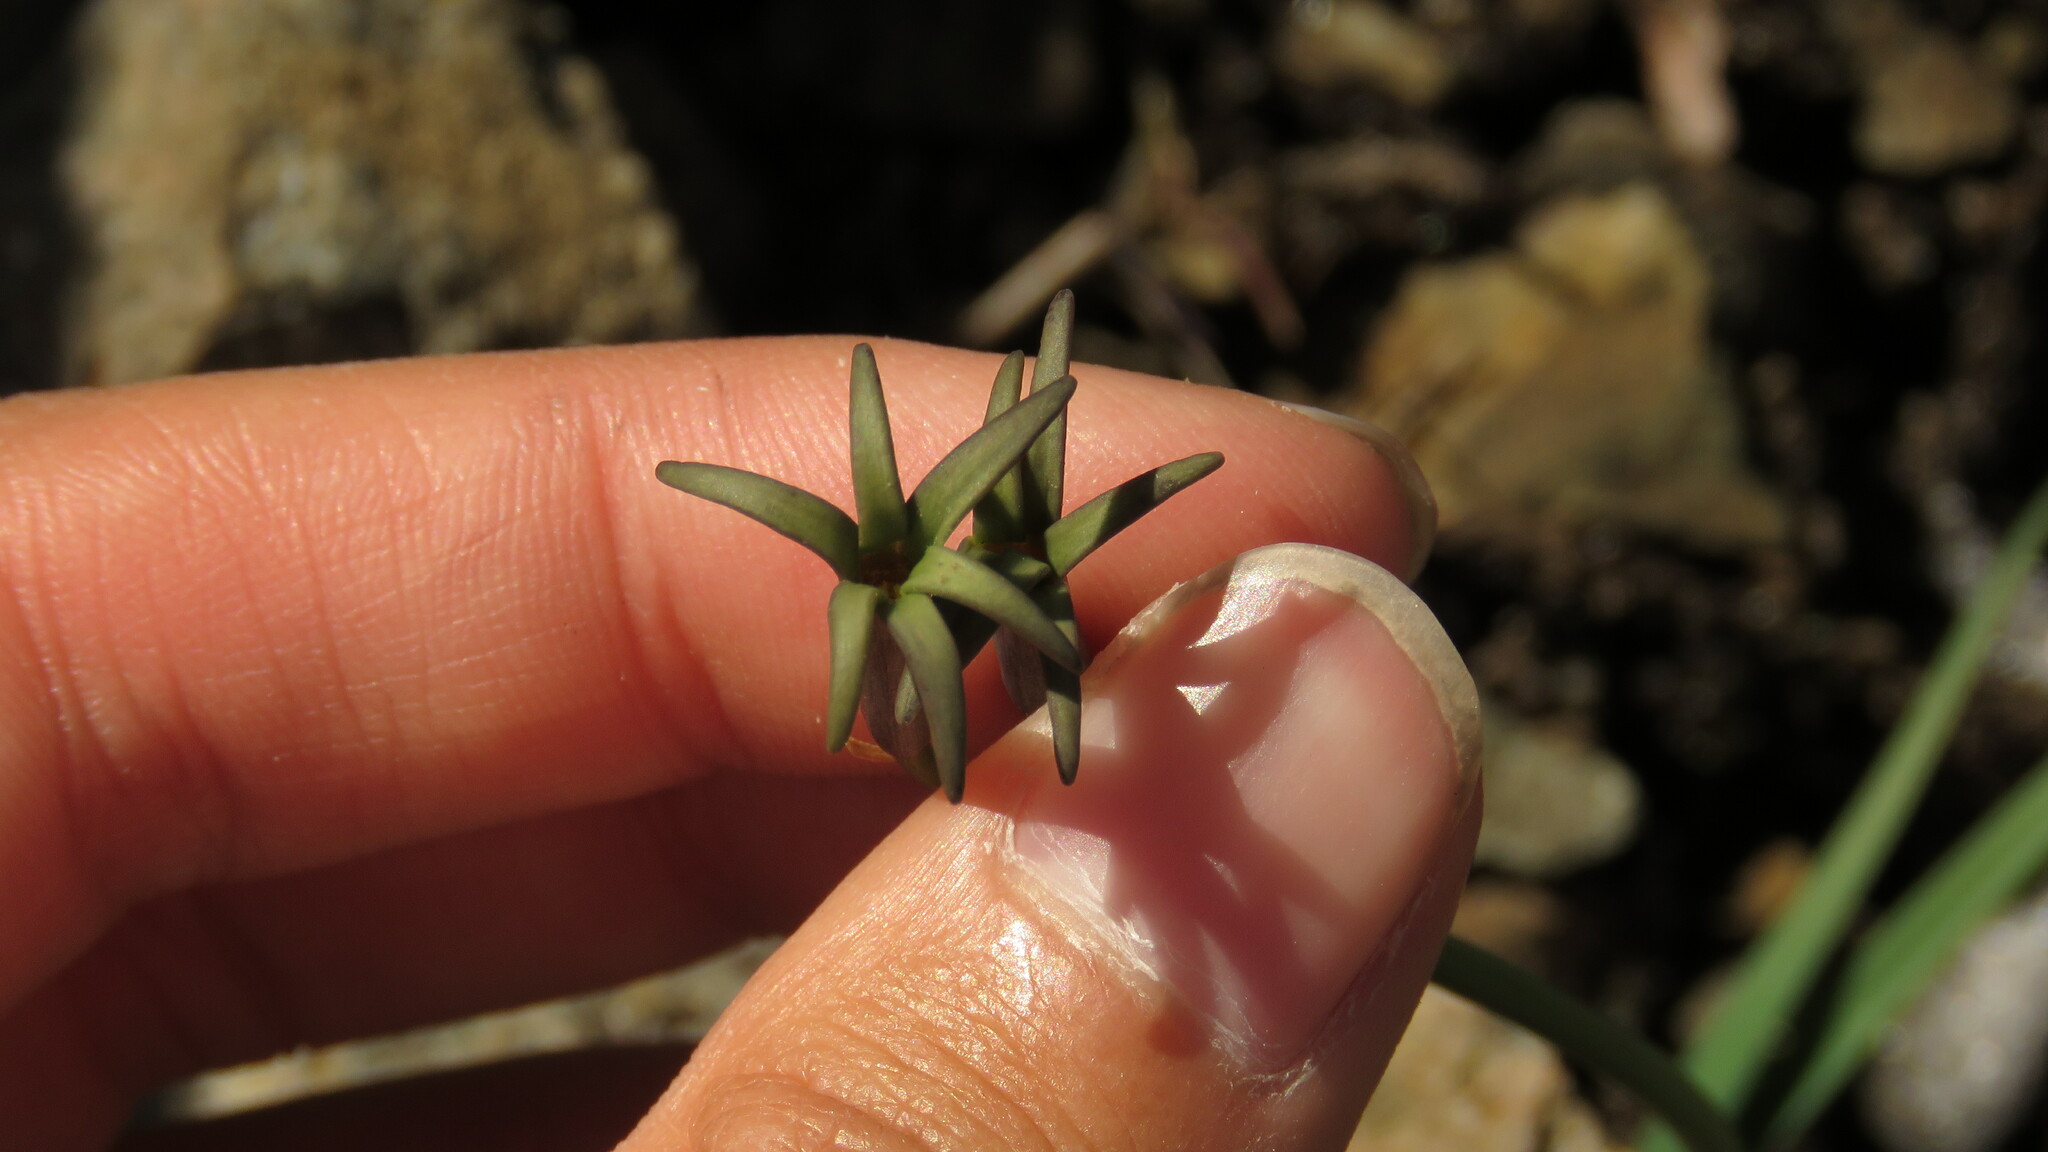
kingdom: Plantae
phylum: Tracheophyta
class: Liliopsida
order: Asparagales
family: Amaryllidaceae
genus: Tristagma
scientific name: Tristagma nivale
